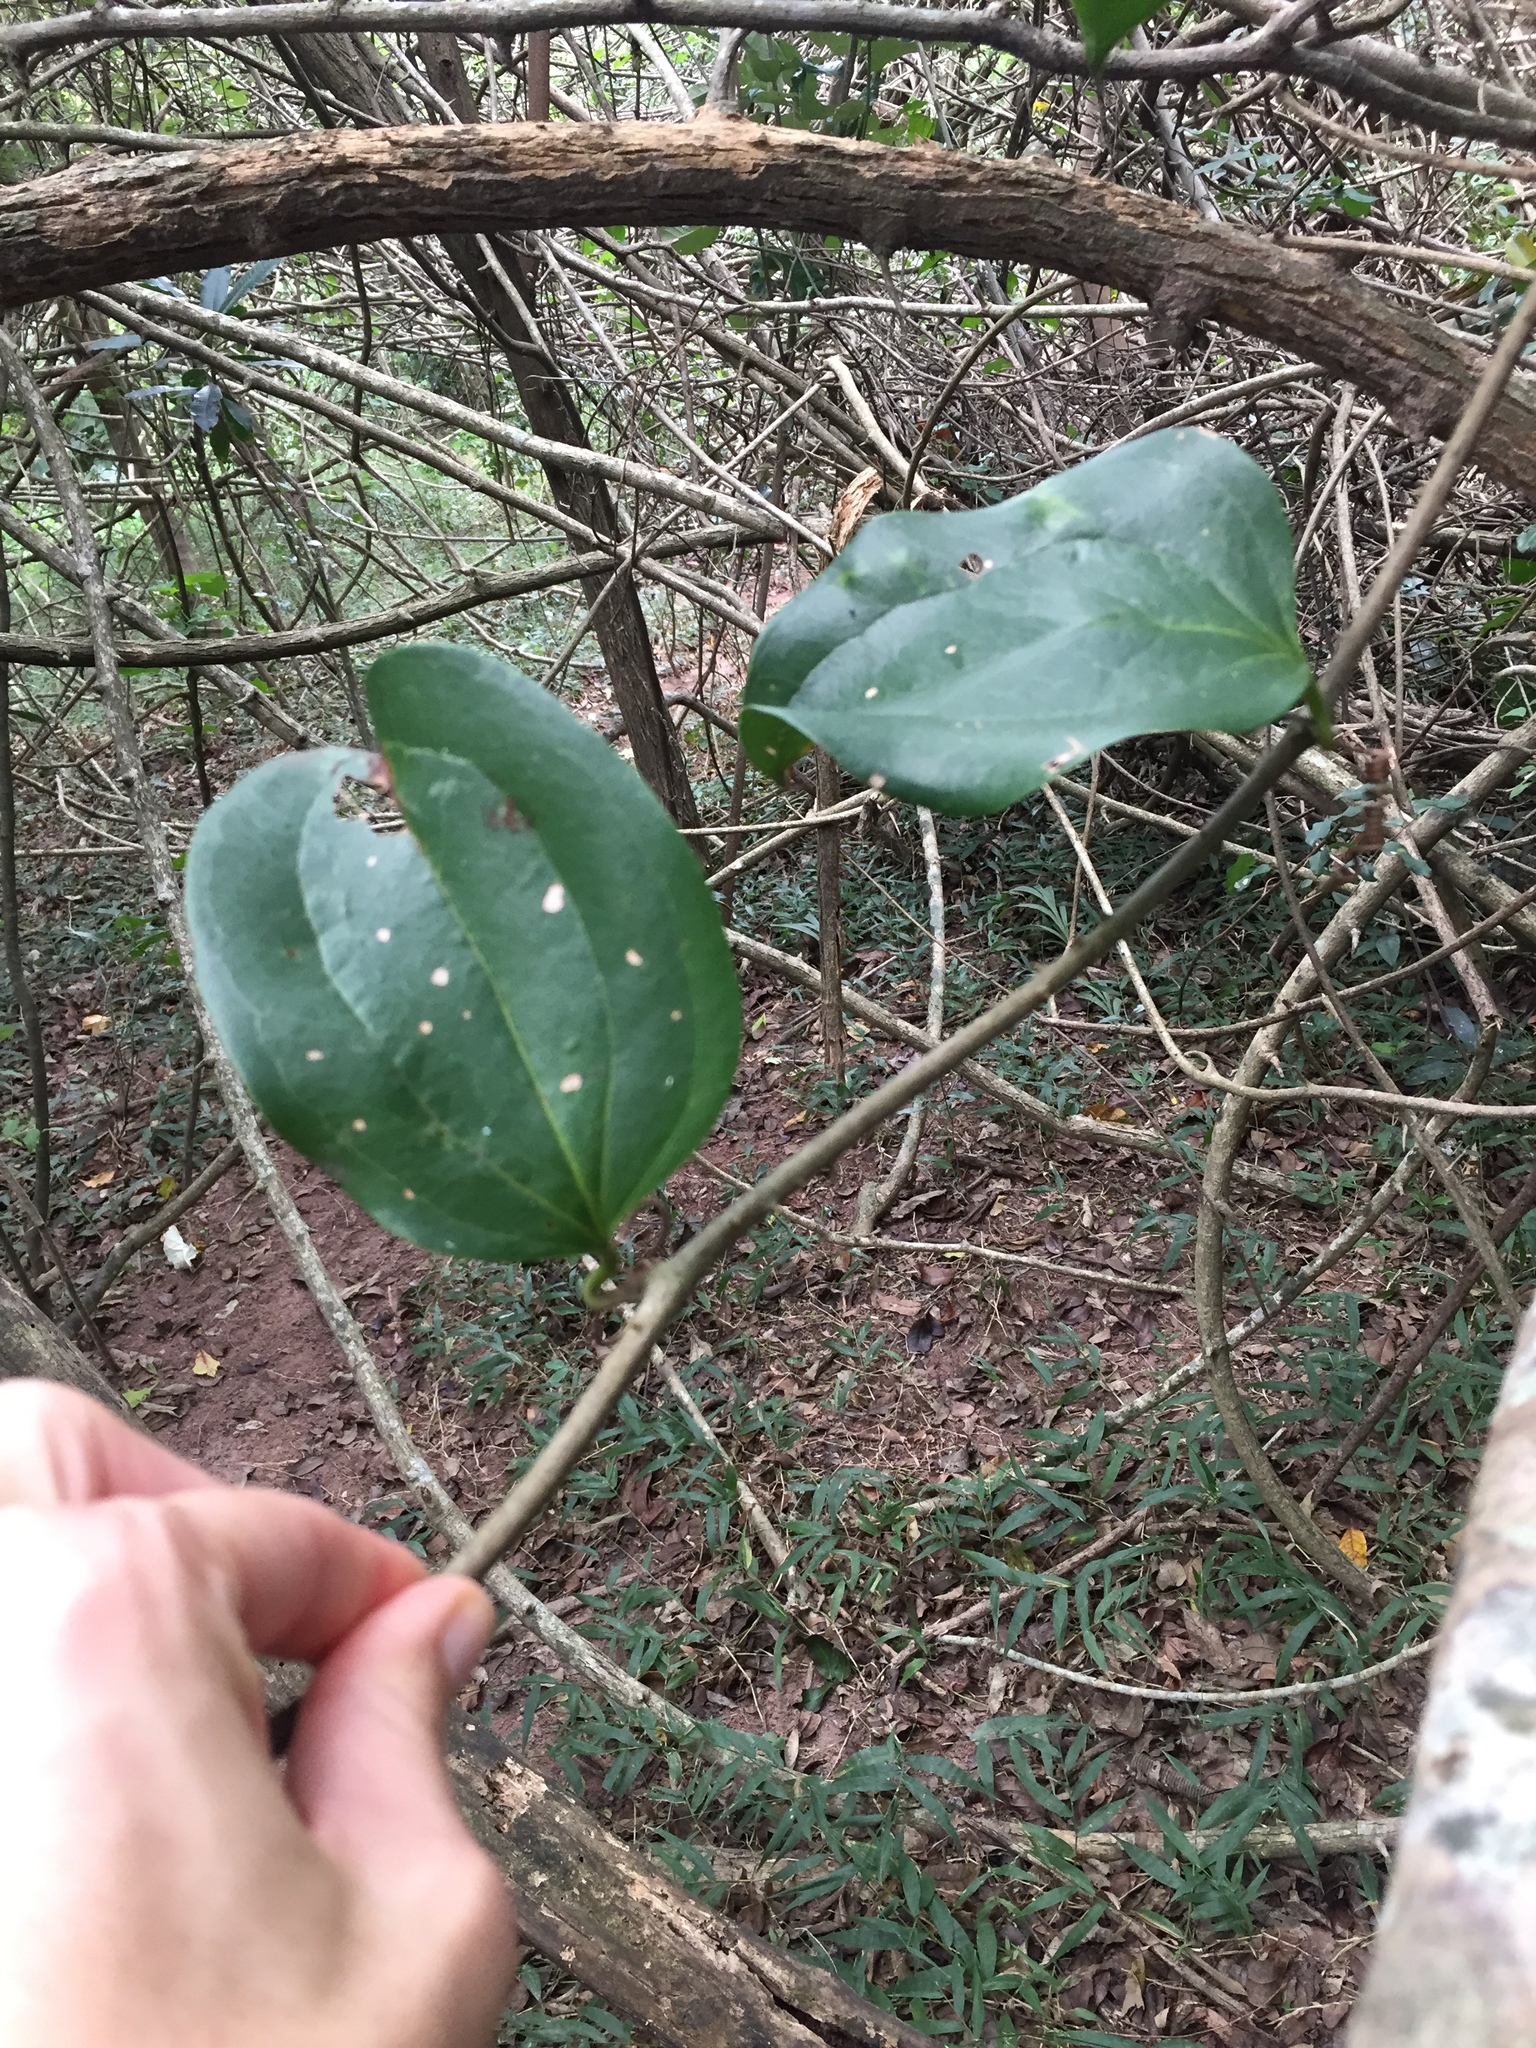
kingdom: Plantae
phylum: Tracheophyta
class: Liliopsida
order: Liliales
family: Smilacaceae
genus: Smilax
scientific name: Smilax anceps
